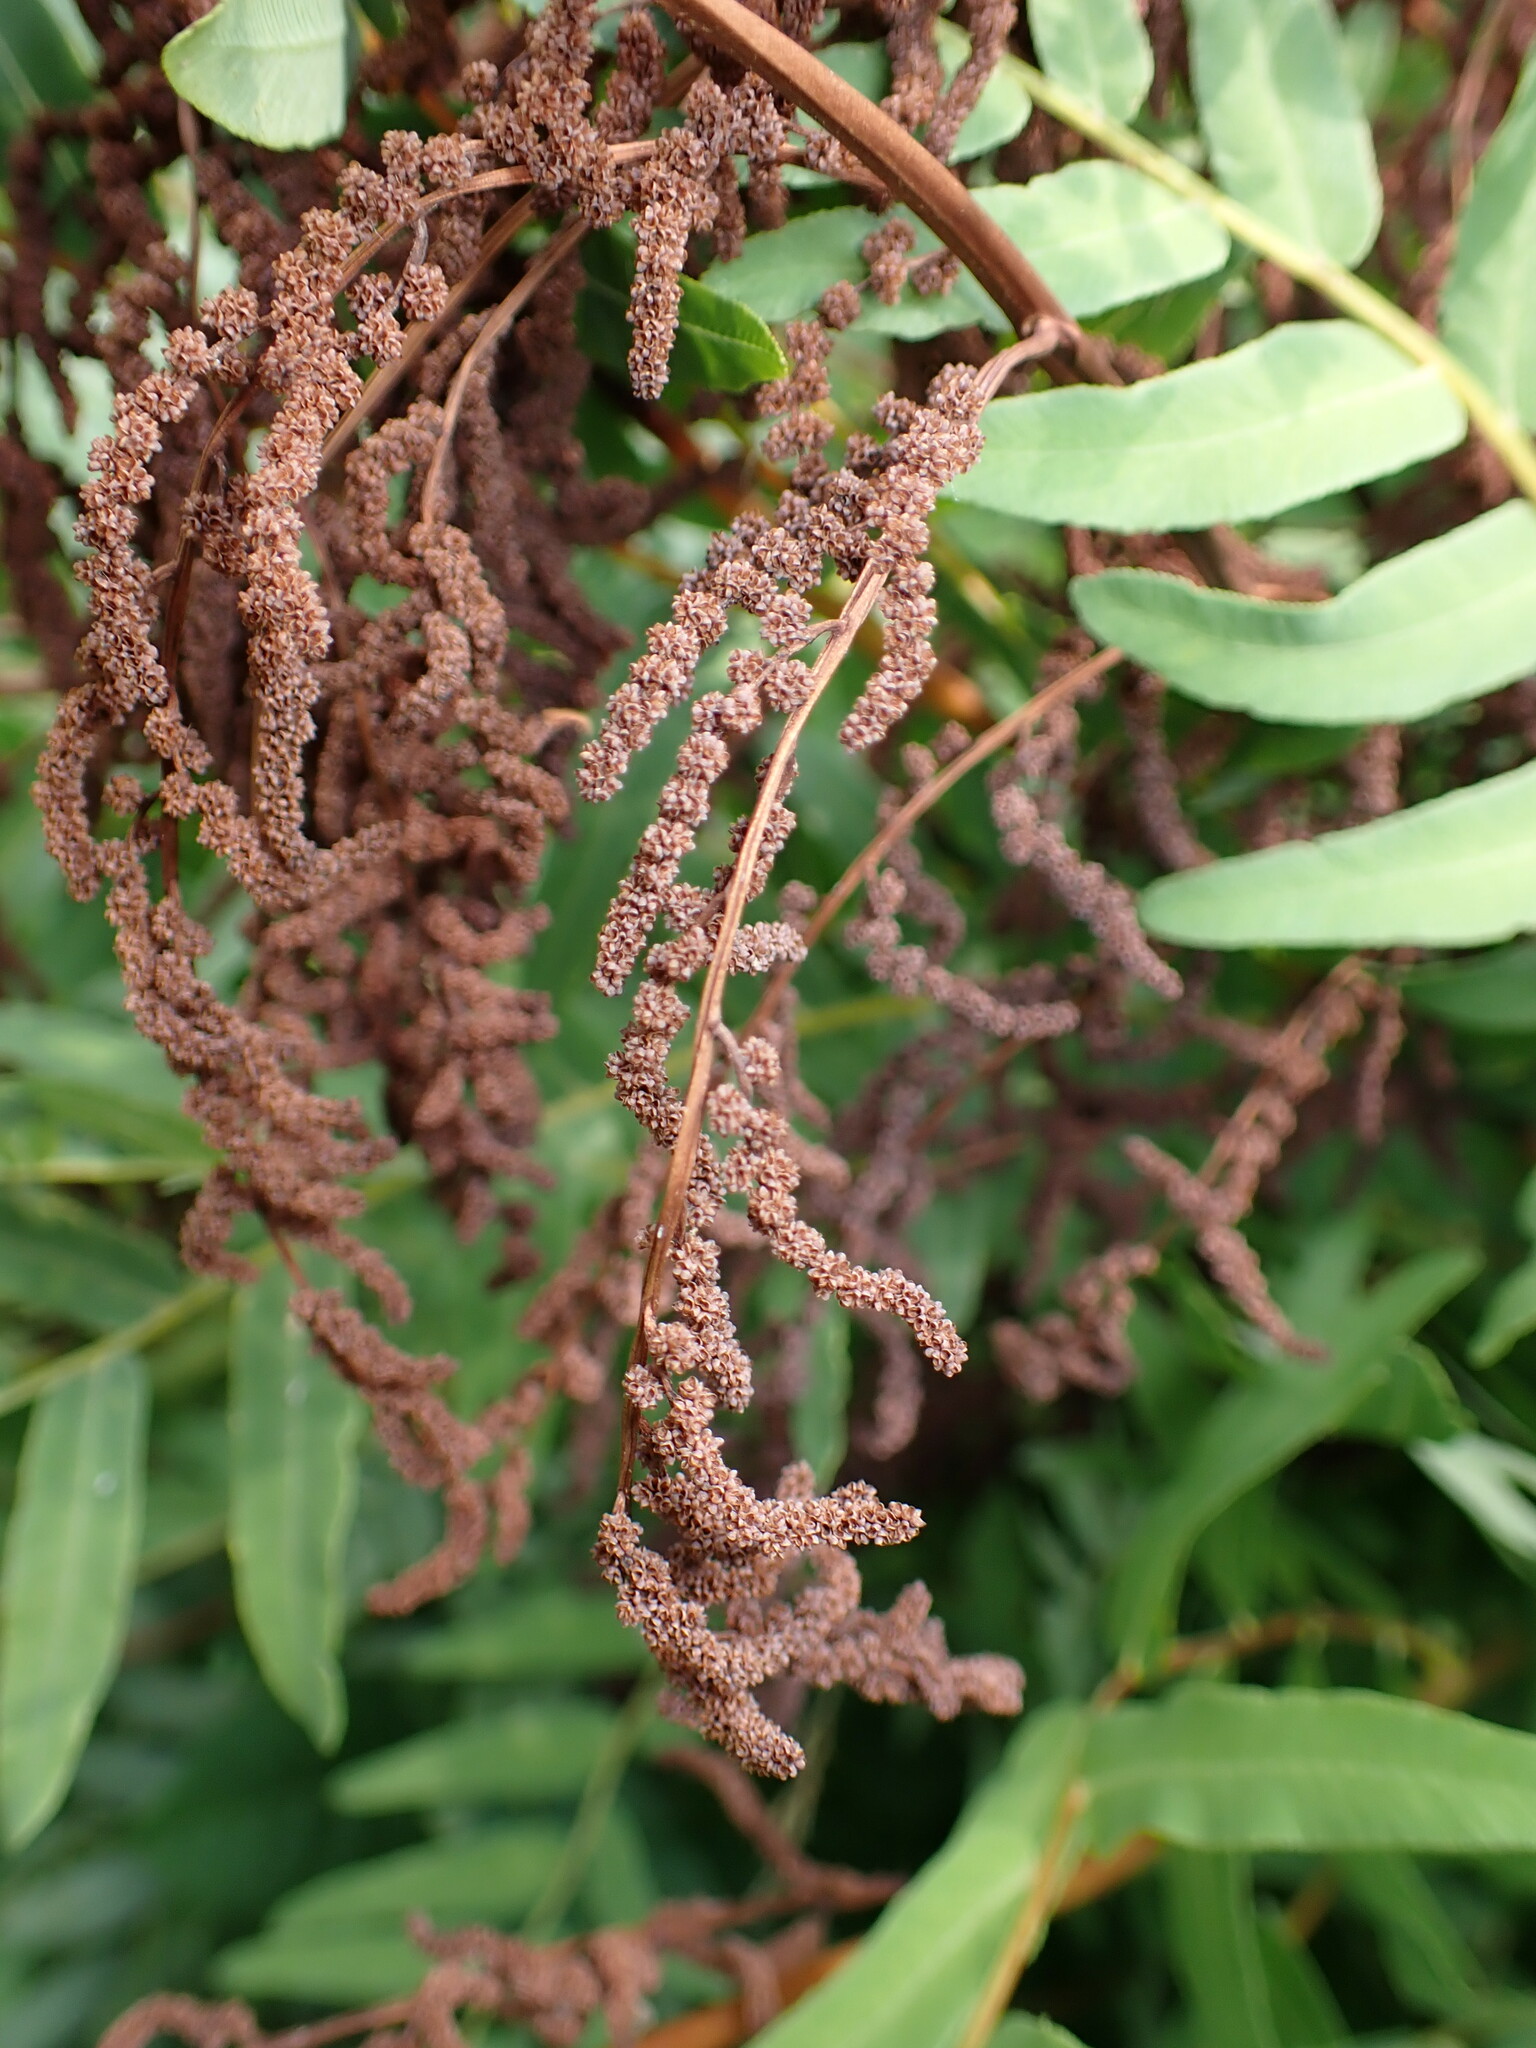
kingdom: Plantae
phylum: Tracheophyta
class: Polypodiopsida
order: Osmundales
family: Osmundaceae
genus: Osmunda
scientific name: Osmunda spectabilis
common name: American royal fern
